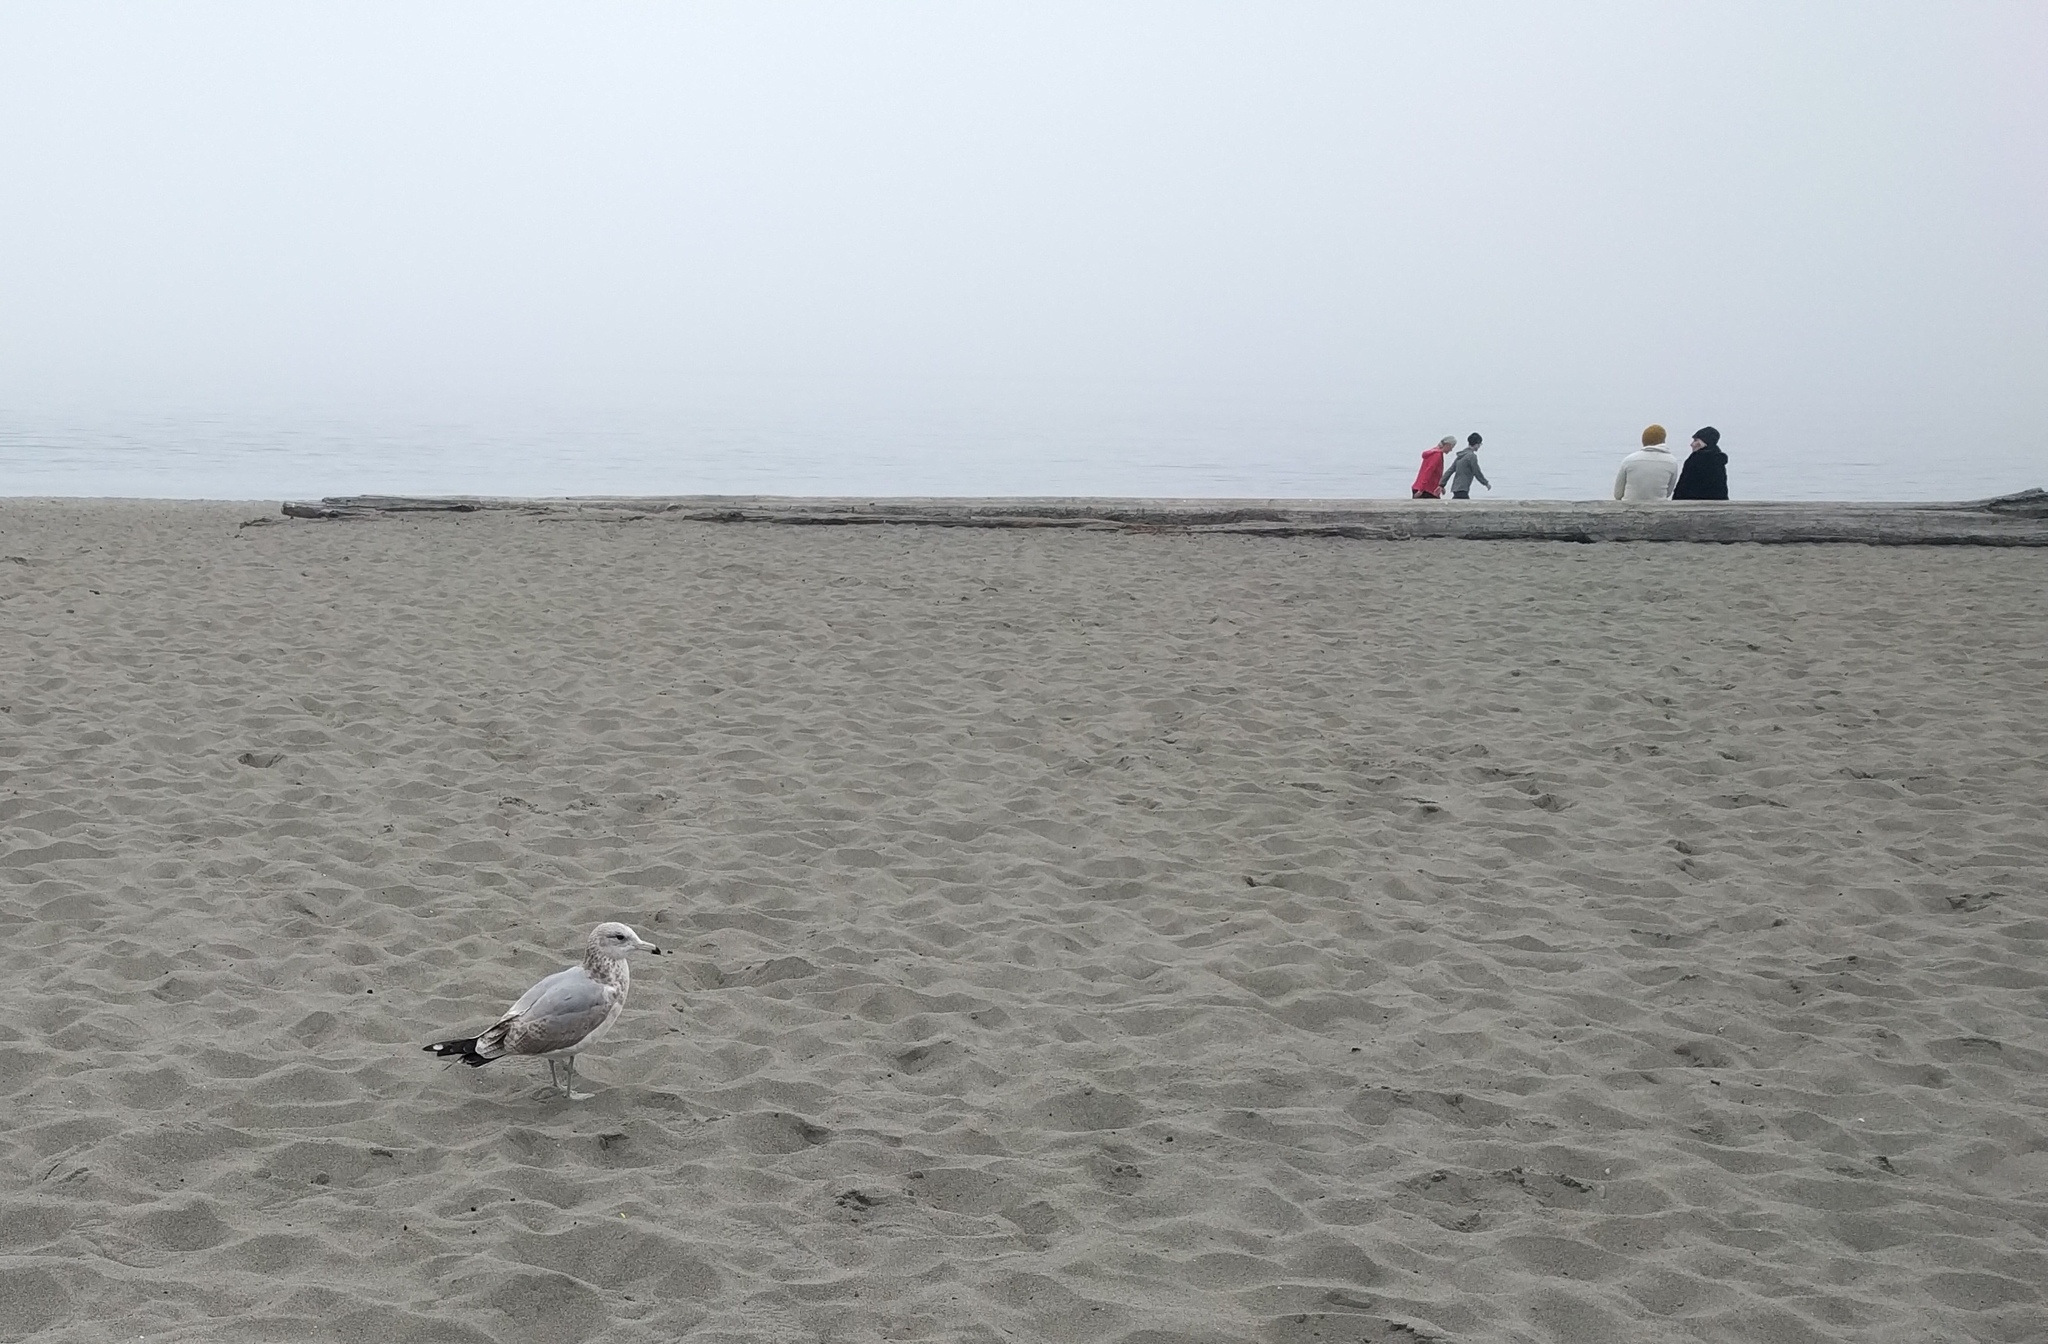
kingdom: Animalia
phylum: Chordata
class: Aves
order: Charadriiformes
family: Laridae
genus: Larus
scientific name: Larus delawarensis
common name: Ring-billed gull
